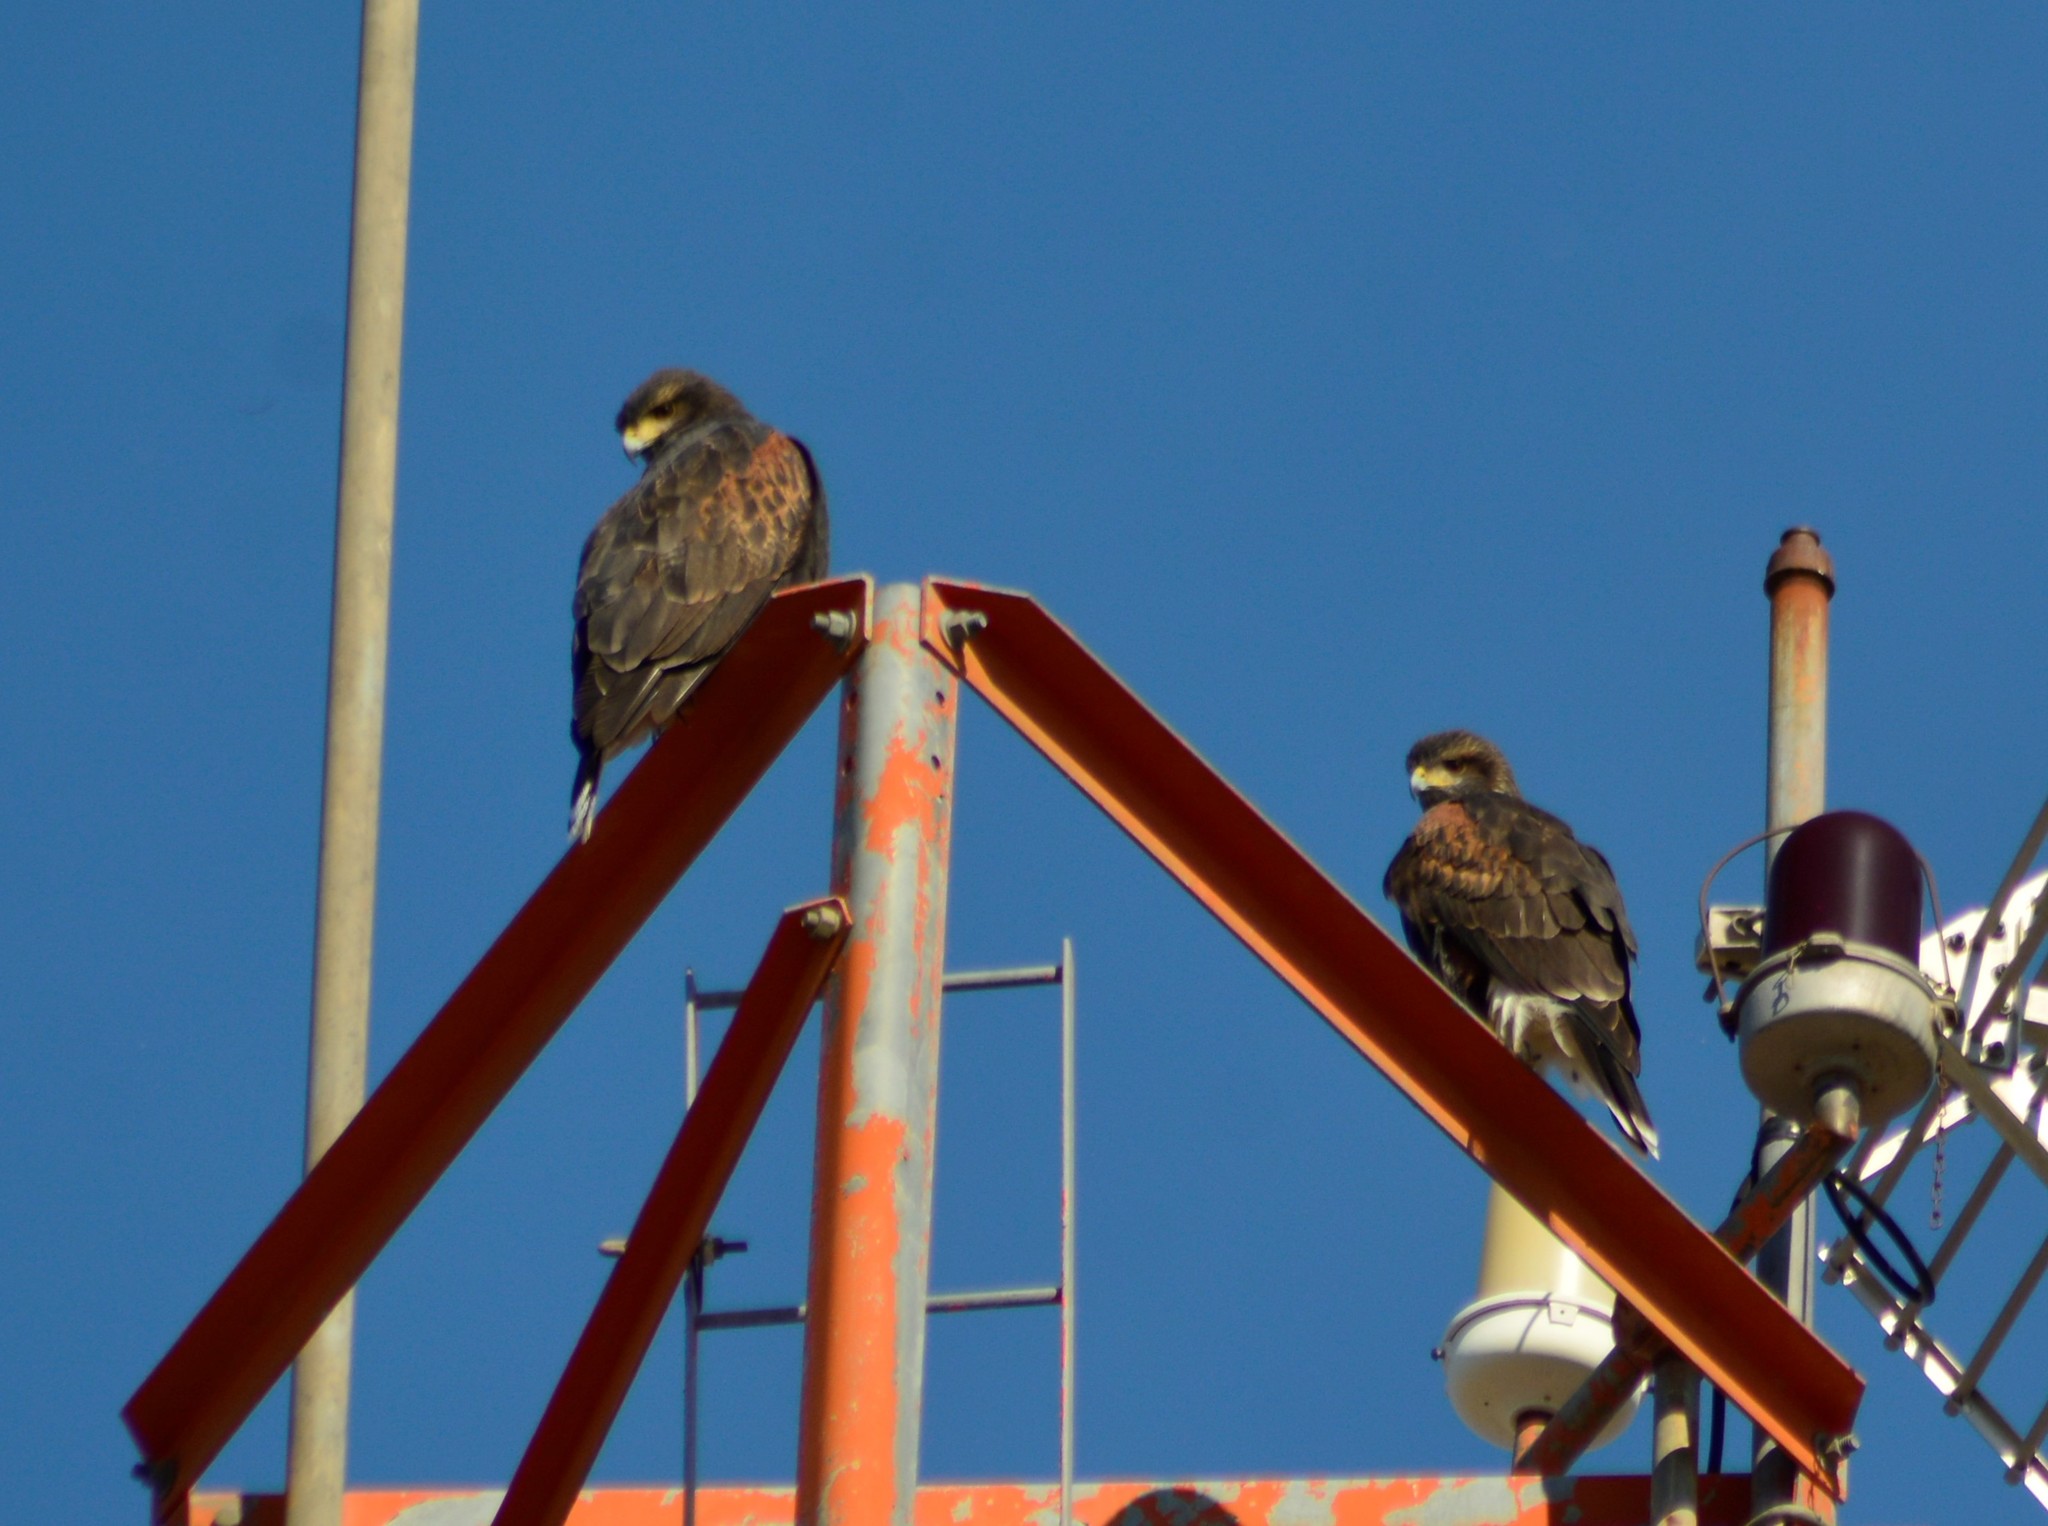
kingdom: Animalia
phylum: Chordata
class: Aves
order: Accipitriformes
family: Accipitridae
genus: Parabuteo
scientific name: Parabuteo unicinctus
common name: Harris's hawk
